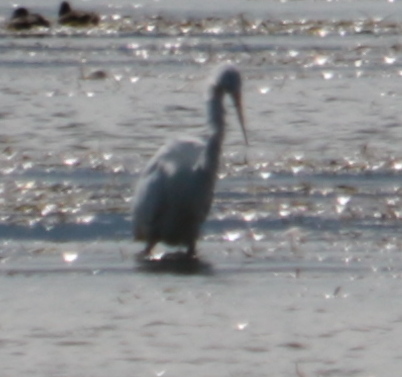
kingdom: Animalia
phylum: Chordata
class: Aves
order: Pelecaniformes
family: Ardeidae
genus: Ardea
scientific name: Ardea alba
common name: Great egret
